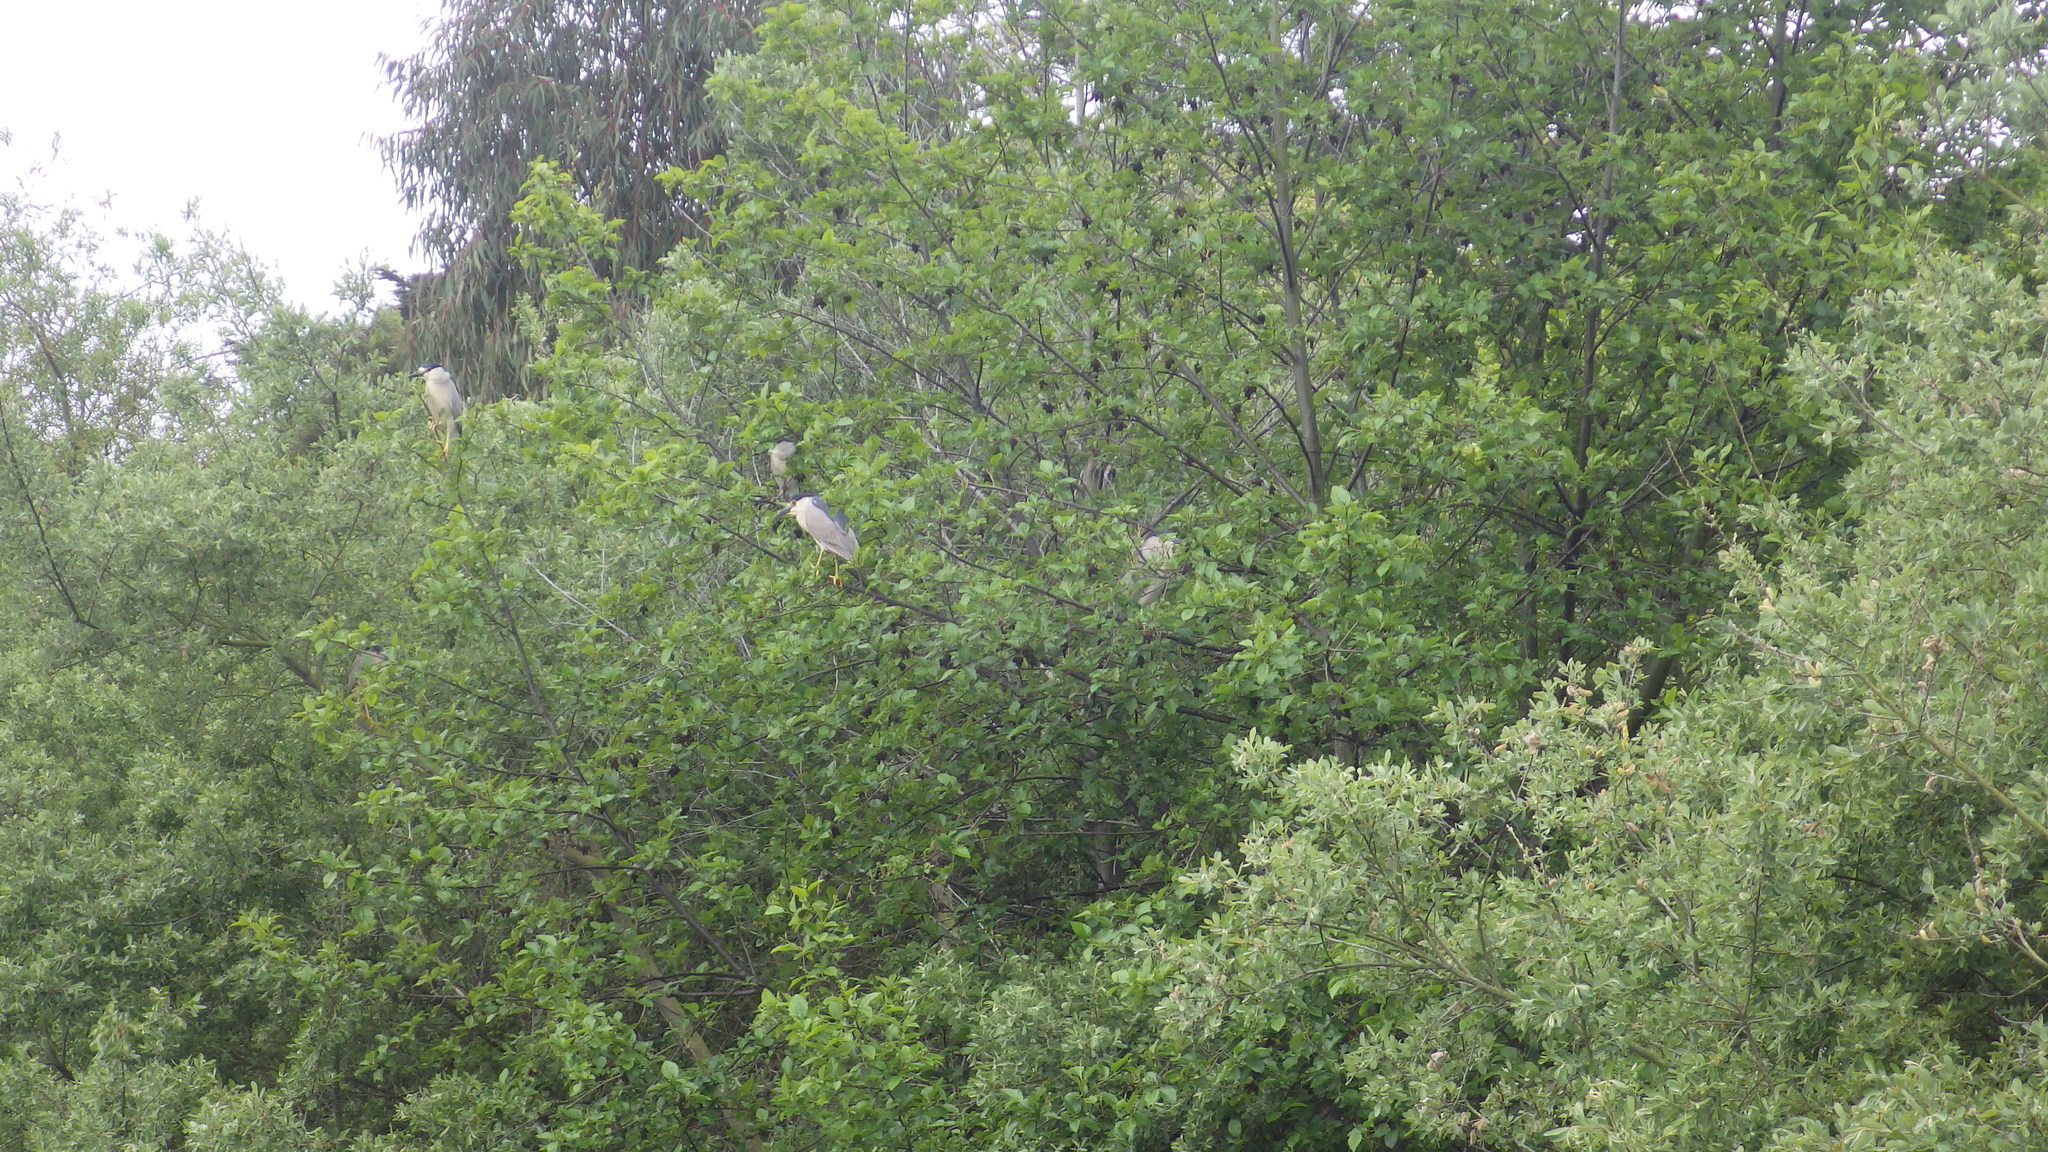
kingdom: Animalia
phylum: Chordata
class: Aves
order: Pelecaniformes
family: Ardeidae
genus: Nycticorax
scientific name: Nycticorax nycticorax
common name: Black-crowned night heron
